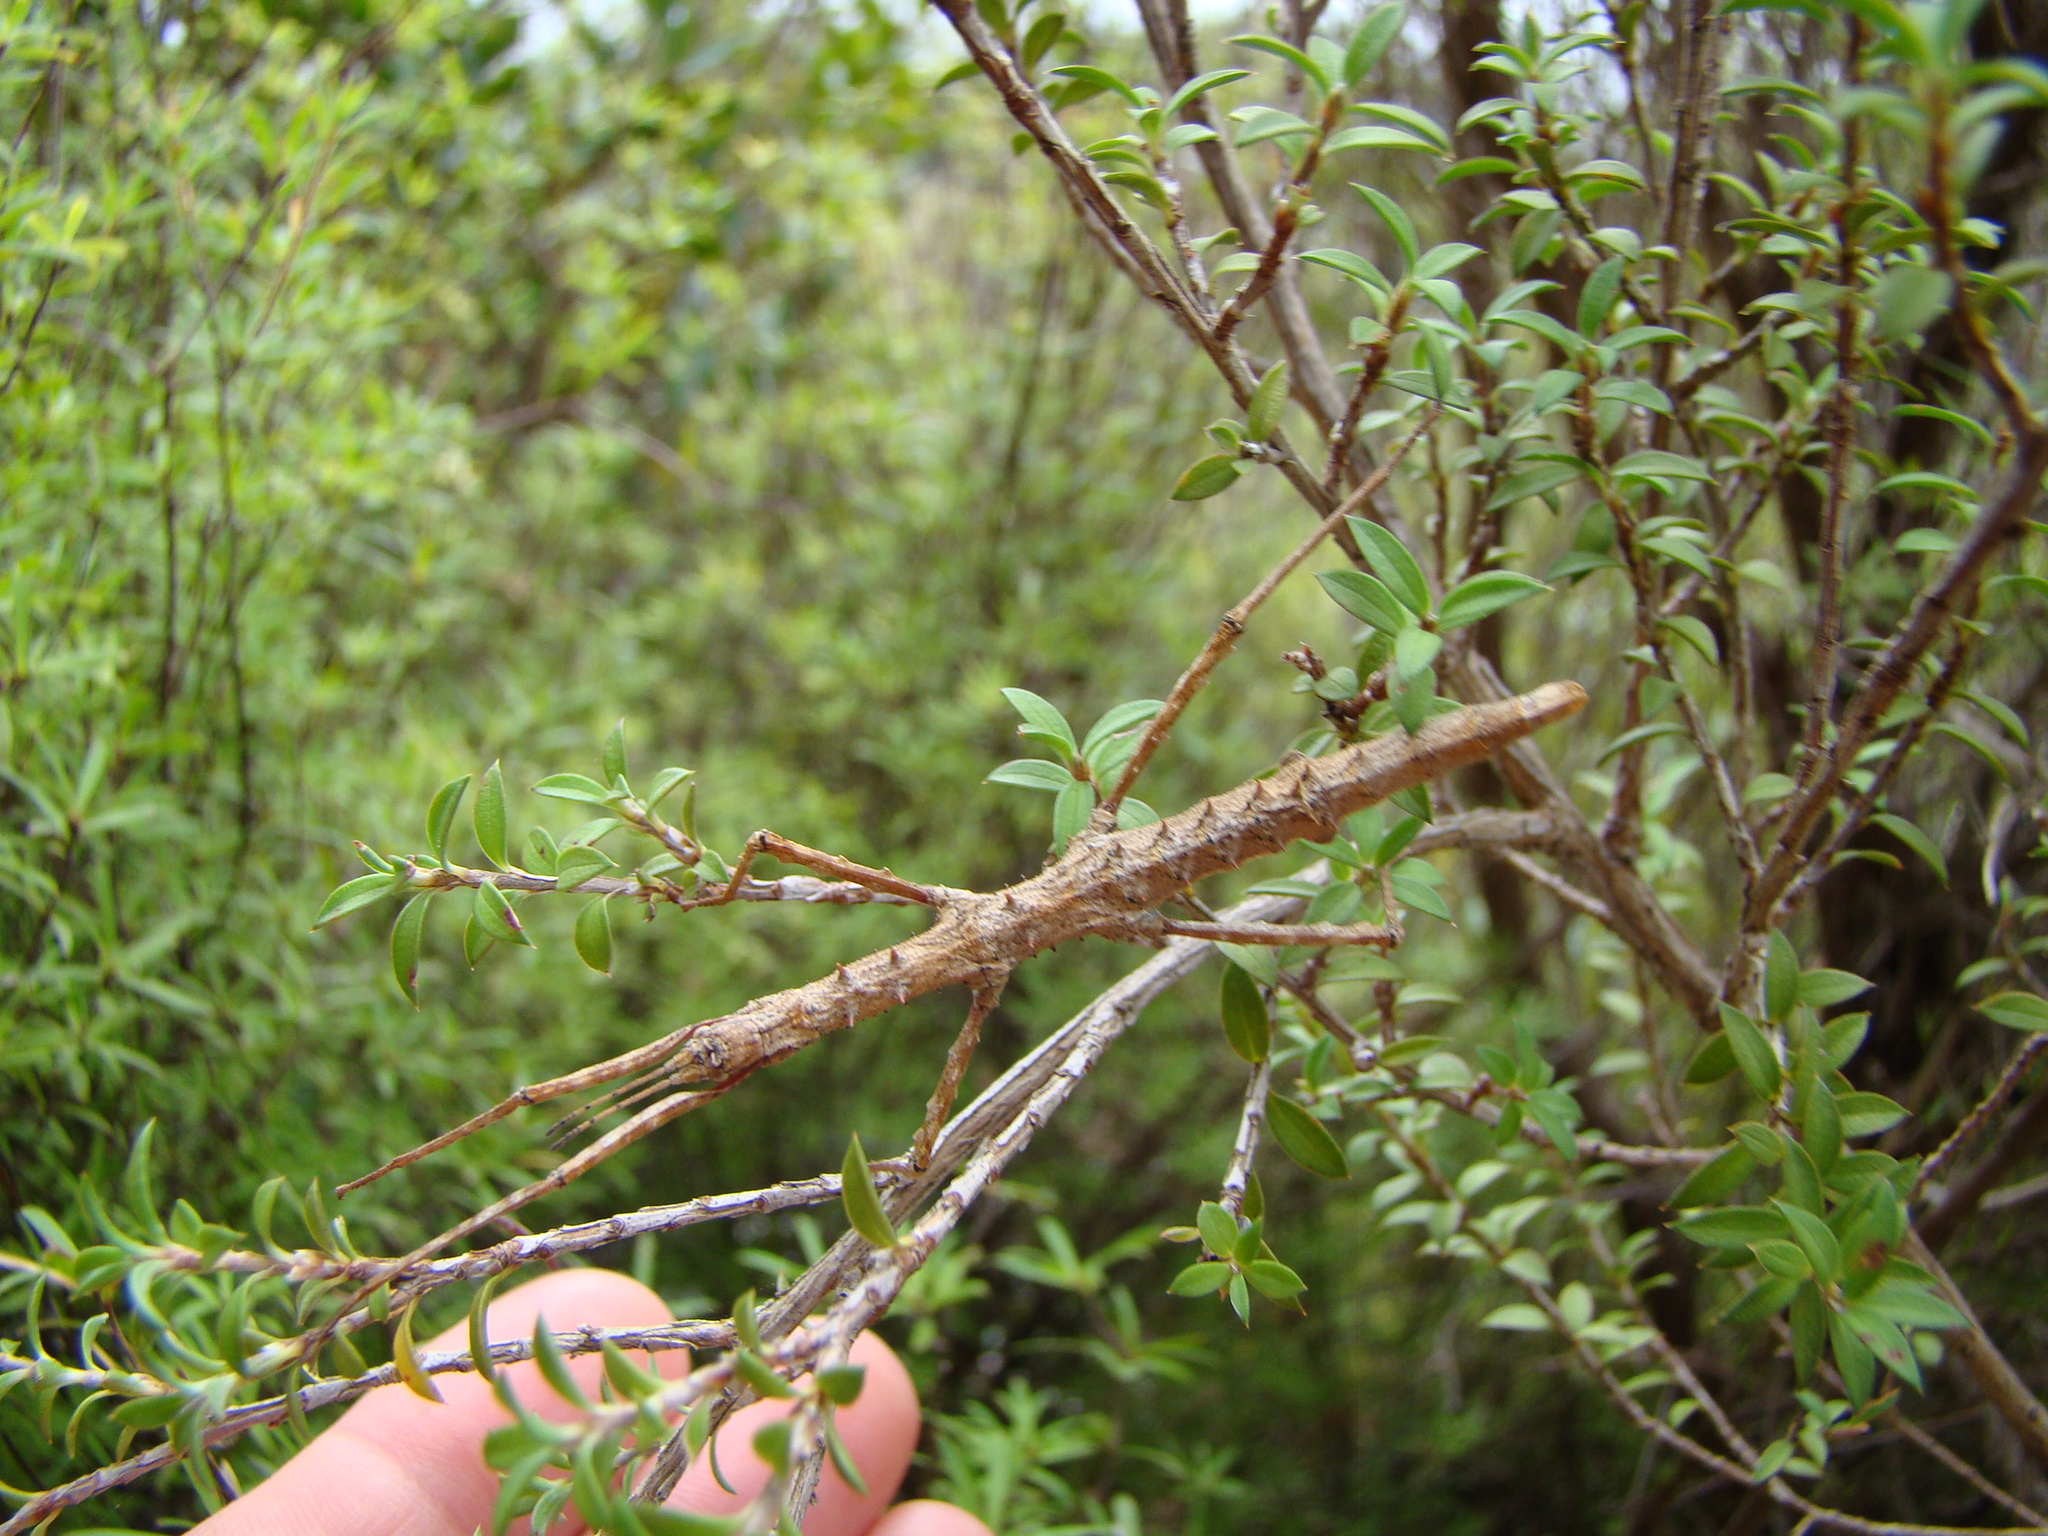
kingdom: Animalia
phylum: Arthropoda
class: Insecta
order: Phasmida
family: Phasmatidae
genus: Micrarchus
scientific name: Micrarchus hystriculeus
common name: The lesser spiny stick insect
